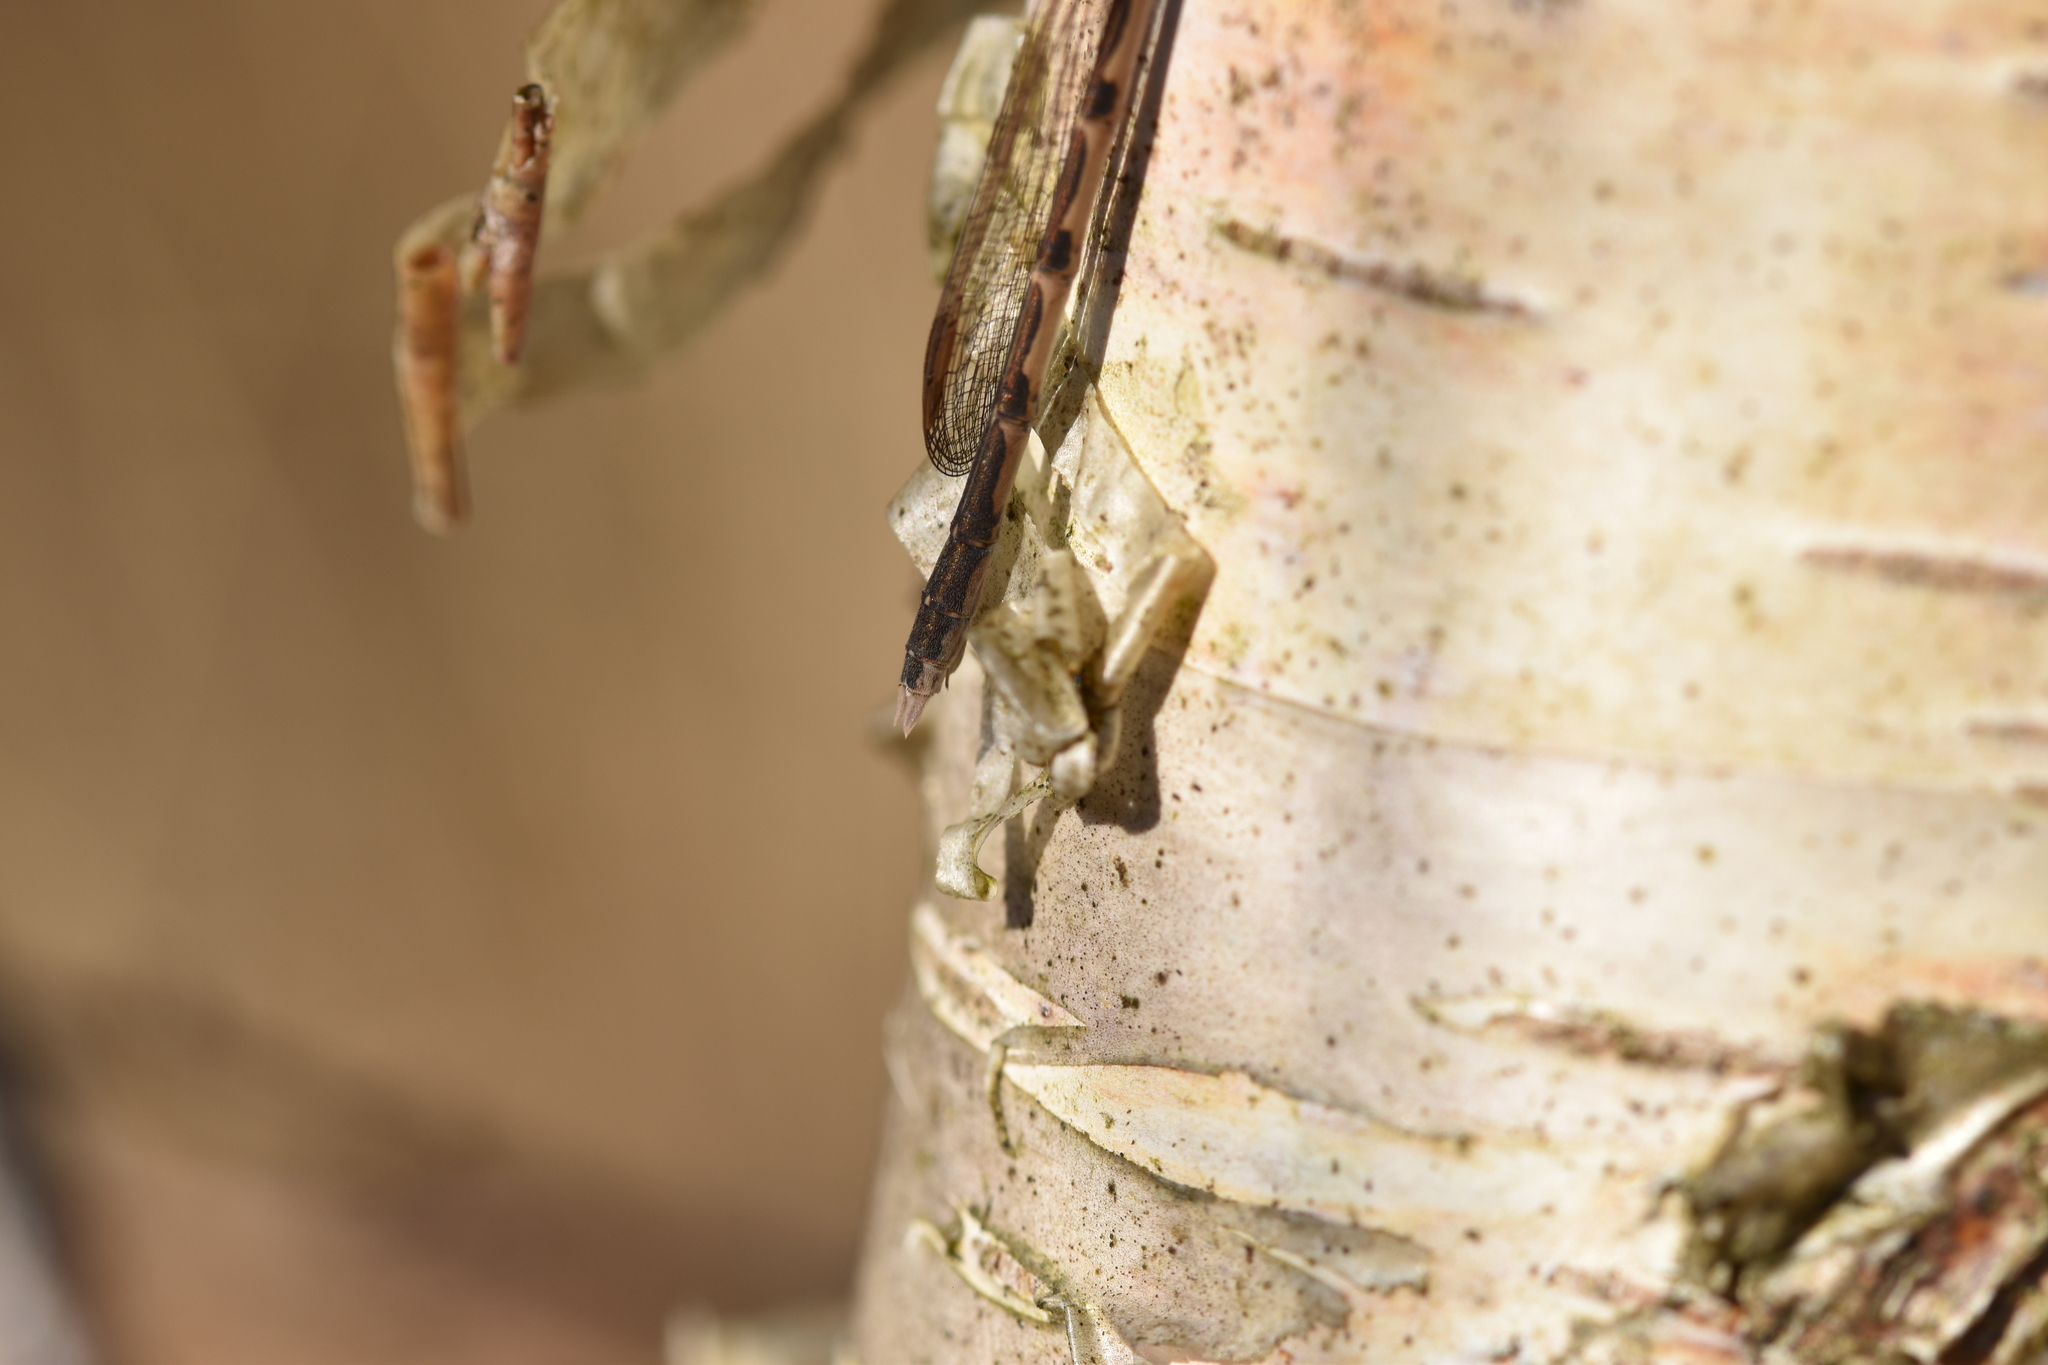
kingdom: Animalia
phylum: Arthropoda
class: Insecta
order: Odonata
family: Lestidae
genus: Sympecma
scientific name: Sympecma fusca
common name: Common winter damsel
